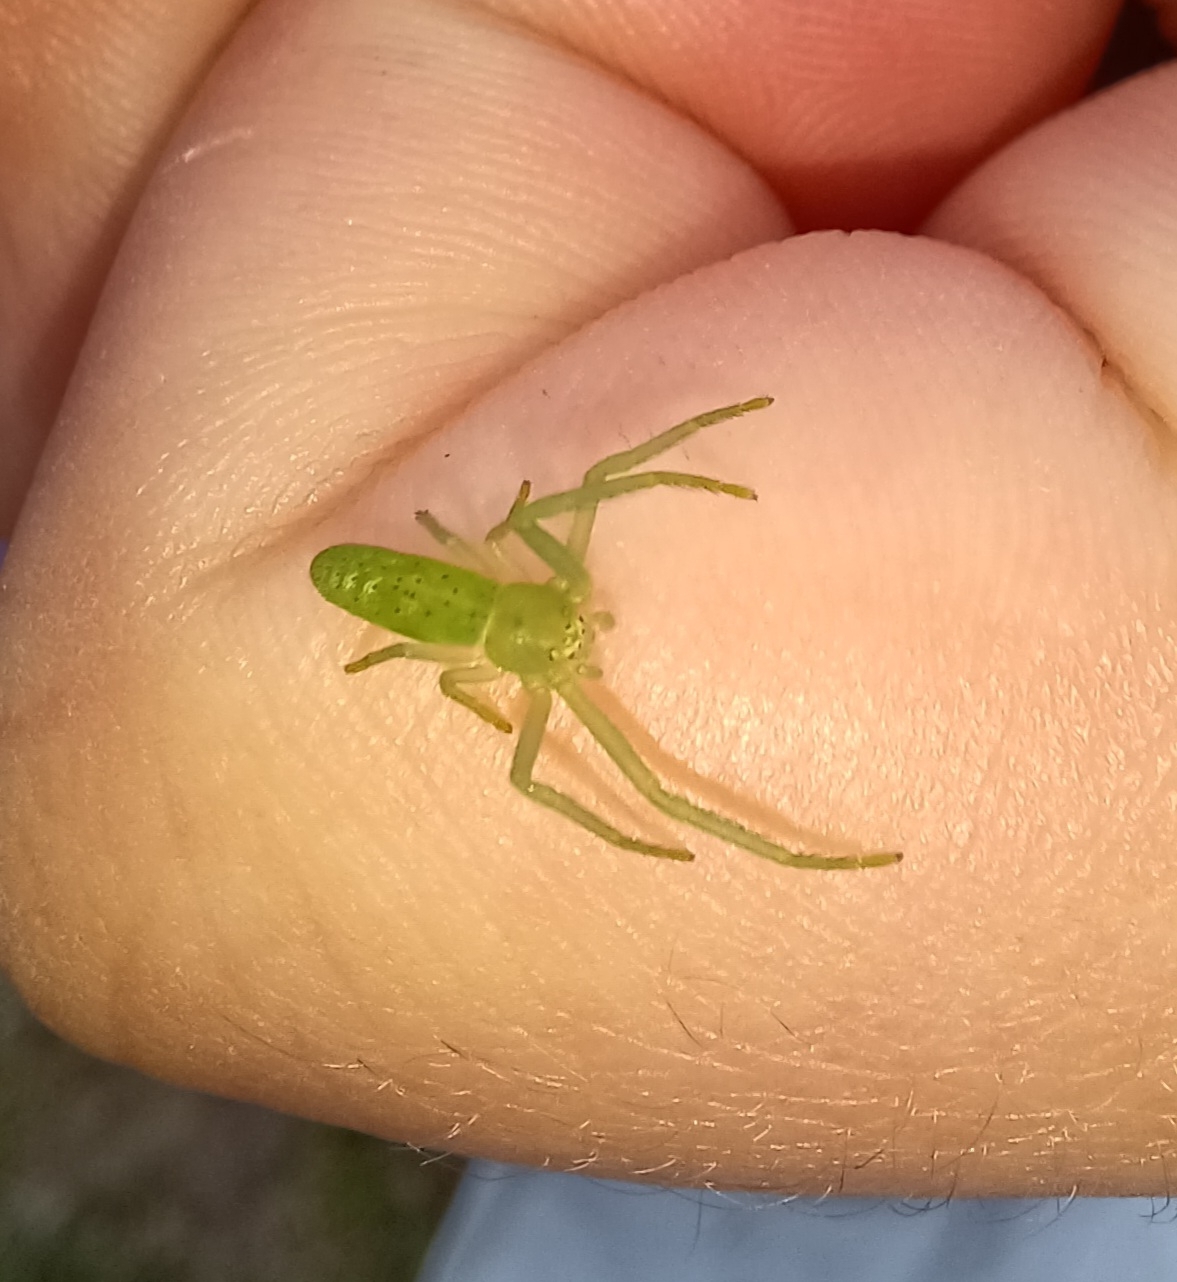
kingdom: Animalia
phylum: Arthropoda
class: Arachnida
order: Araneae
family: Thomisidae
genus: Cetratus
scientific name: Cetratus rubropunctatus
